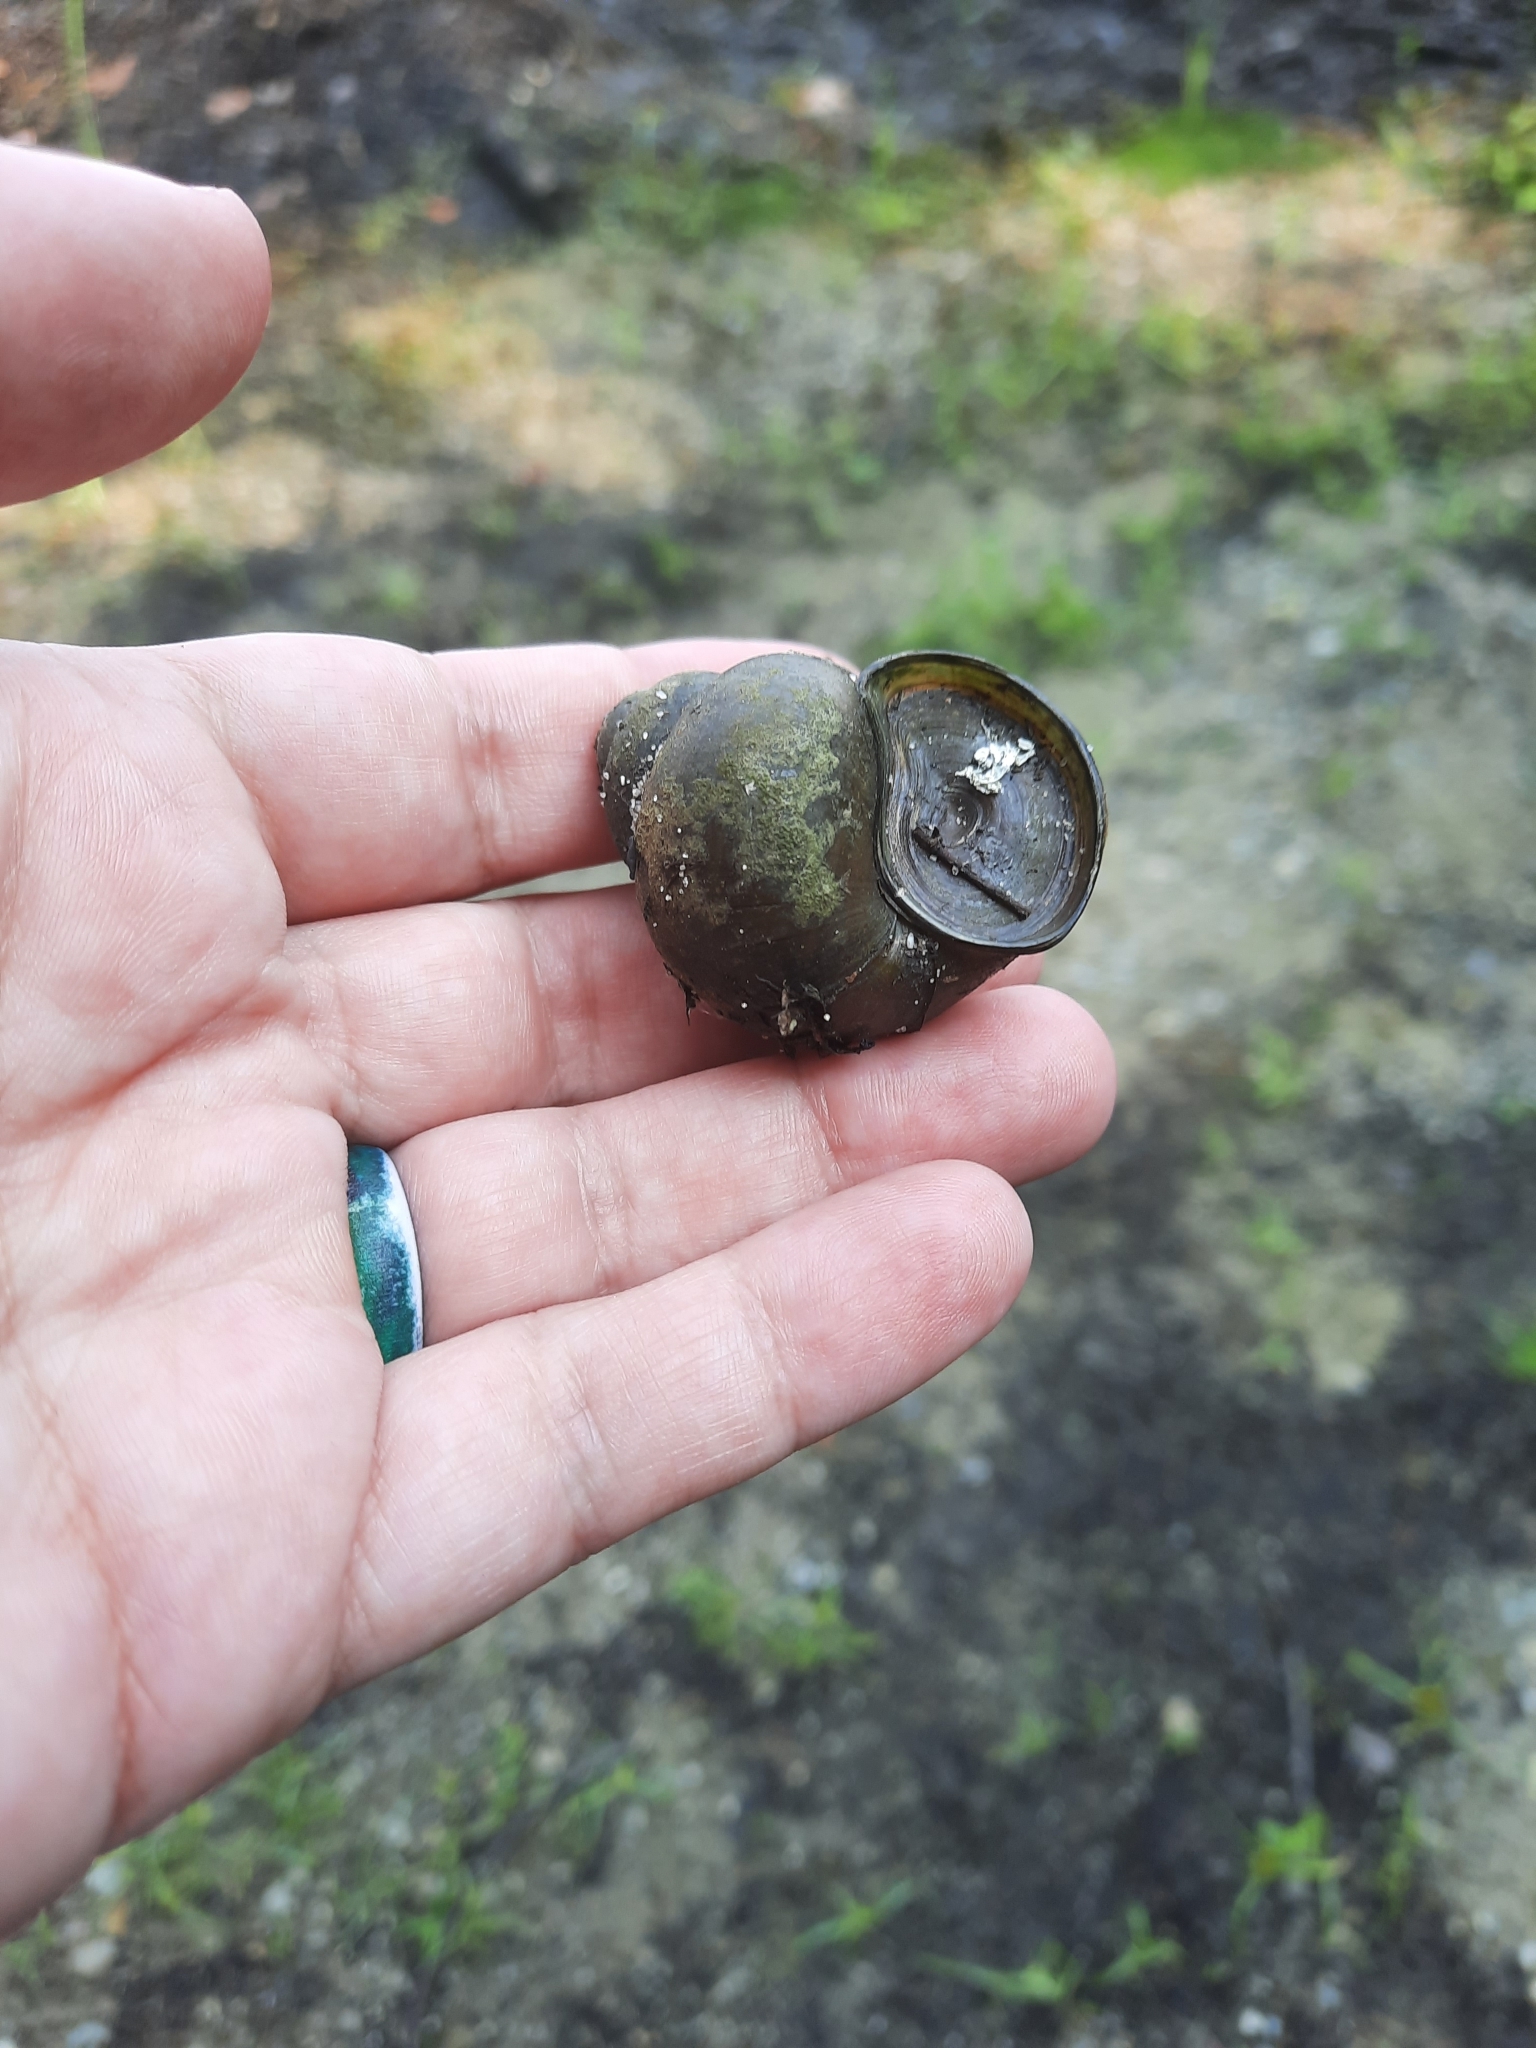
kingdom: Animalia
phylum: Mollusca
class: Gastropoda
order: Architaenioglossa
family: Viviparidae
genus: Cipangopaludina
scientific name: Cipangopaludina chinensis
